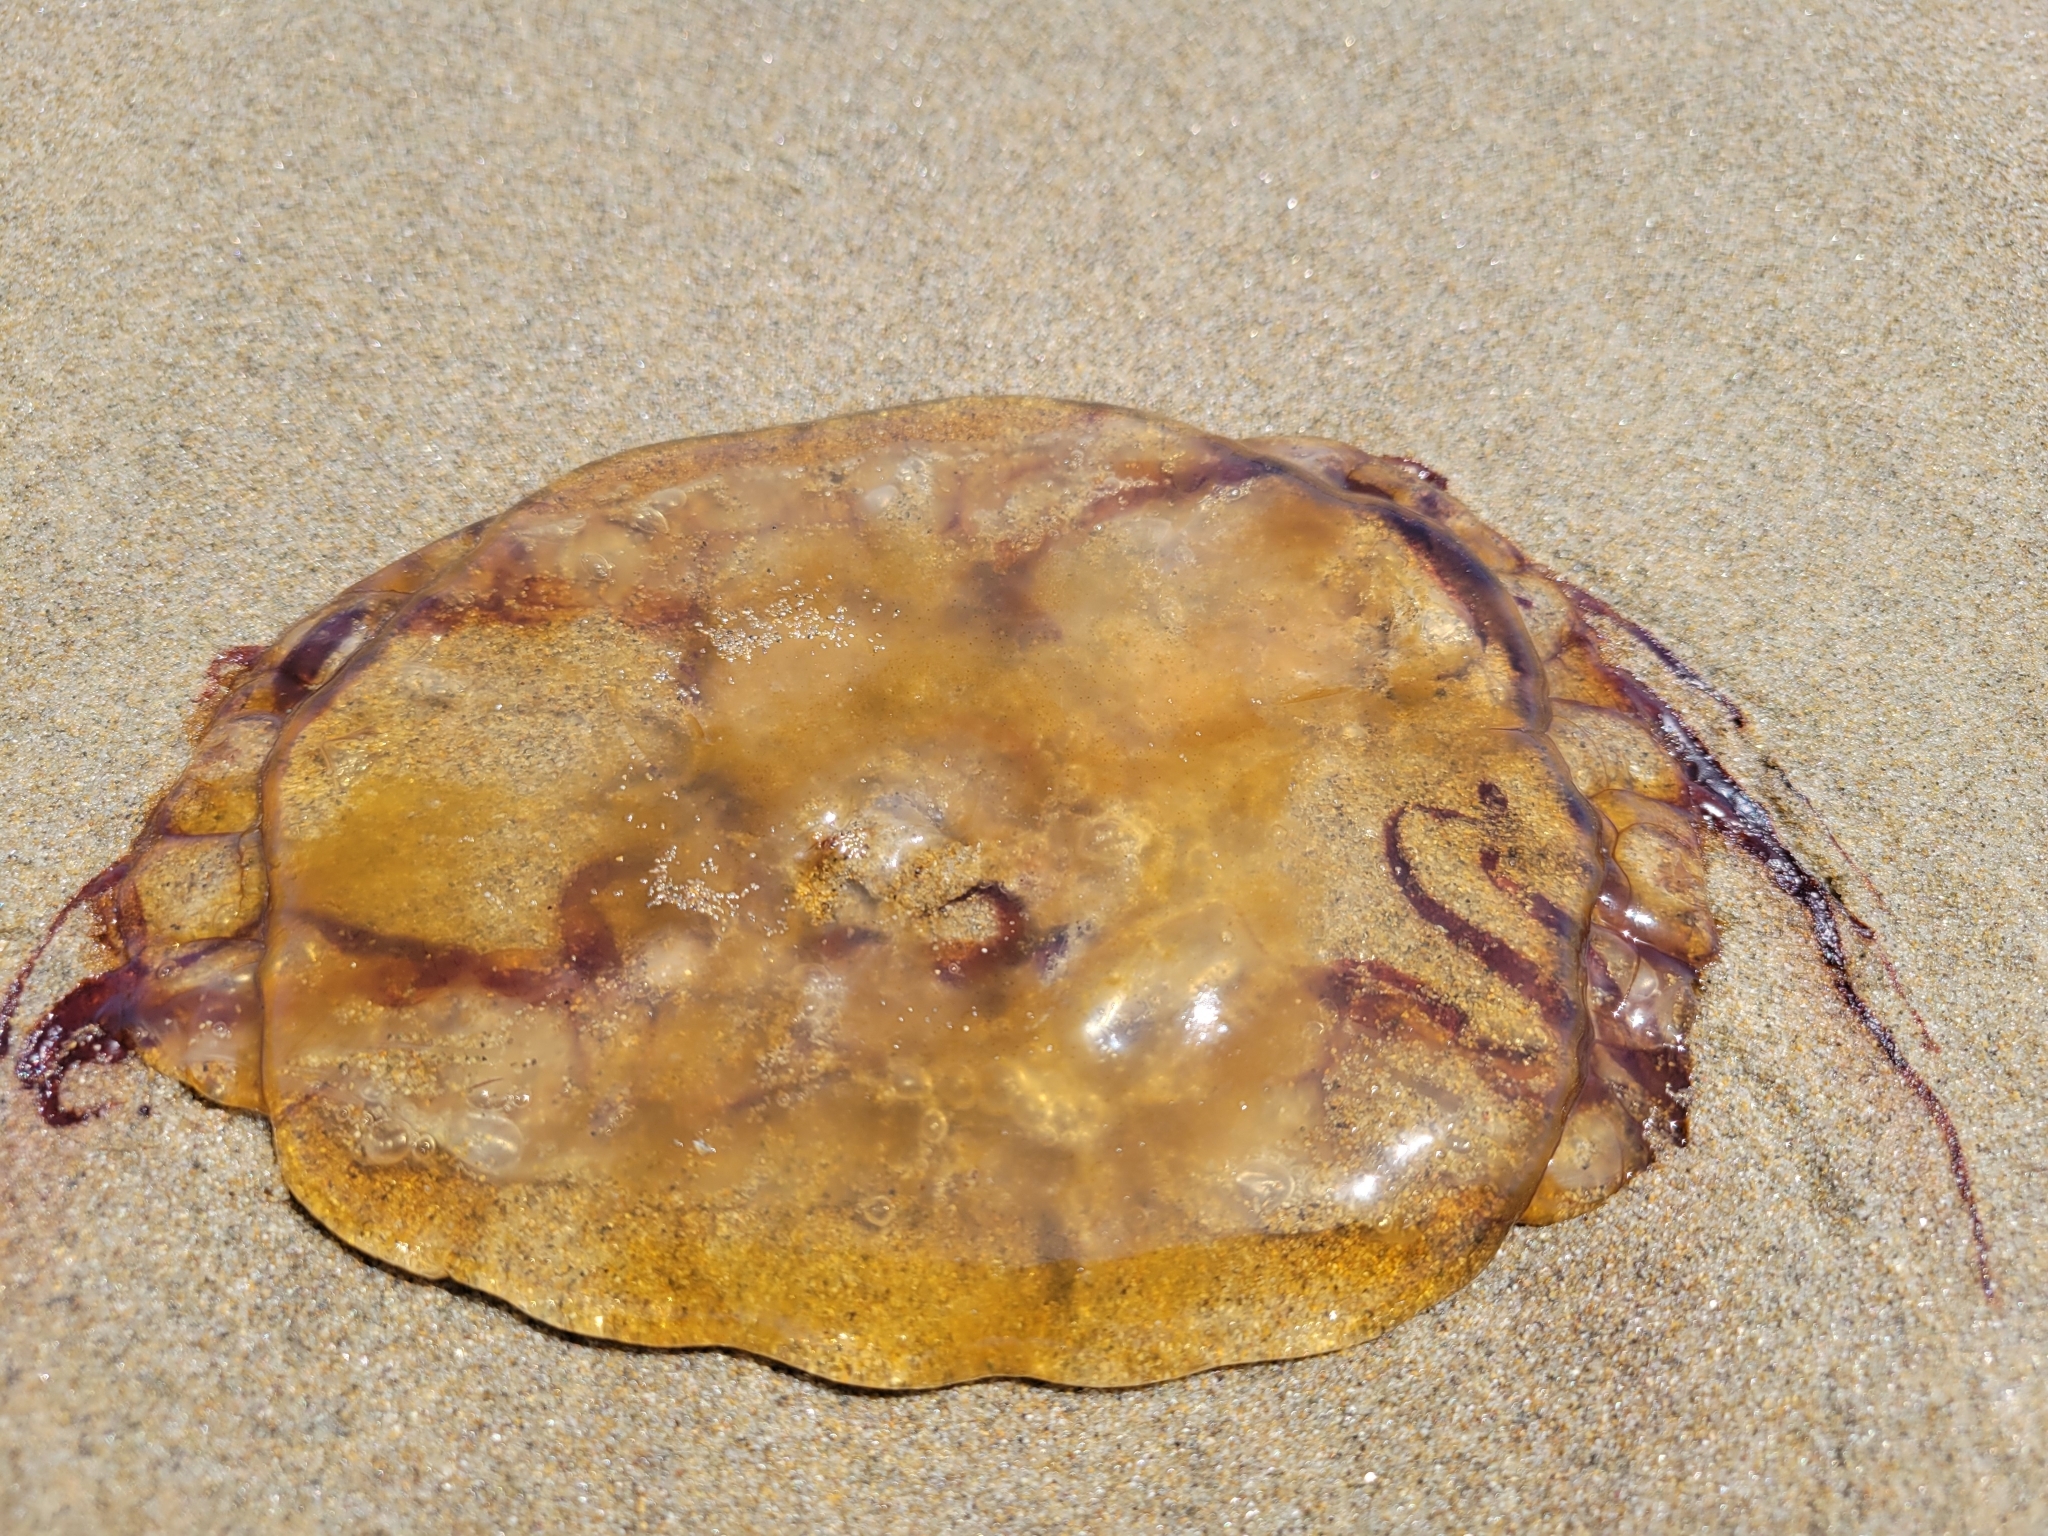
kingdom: Animalia
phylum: Cnidaria
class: Scyphozoa
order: Semaeostomeae
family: Pelagiidae
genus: Chrysaora
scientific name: Chrysaora fuscescens
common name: Sea nettle
